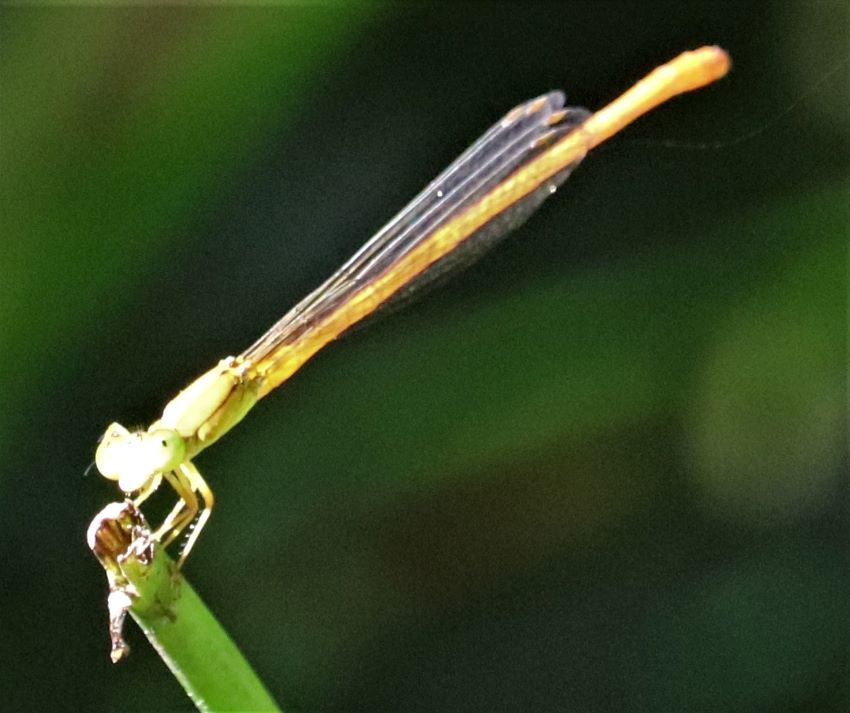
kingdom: Animalia
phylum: Arthropoda
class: Insecta
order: Odonata
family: Coenagrionidae
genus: Ceriagrion
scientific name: Ceriagrion glabrum
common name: Common pond damsel
